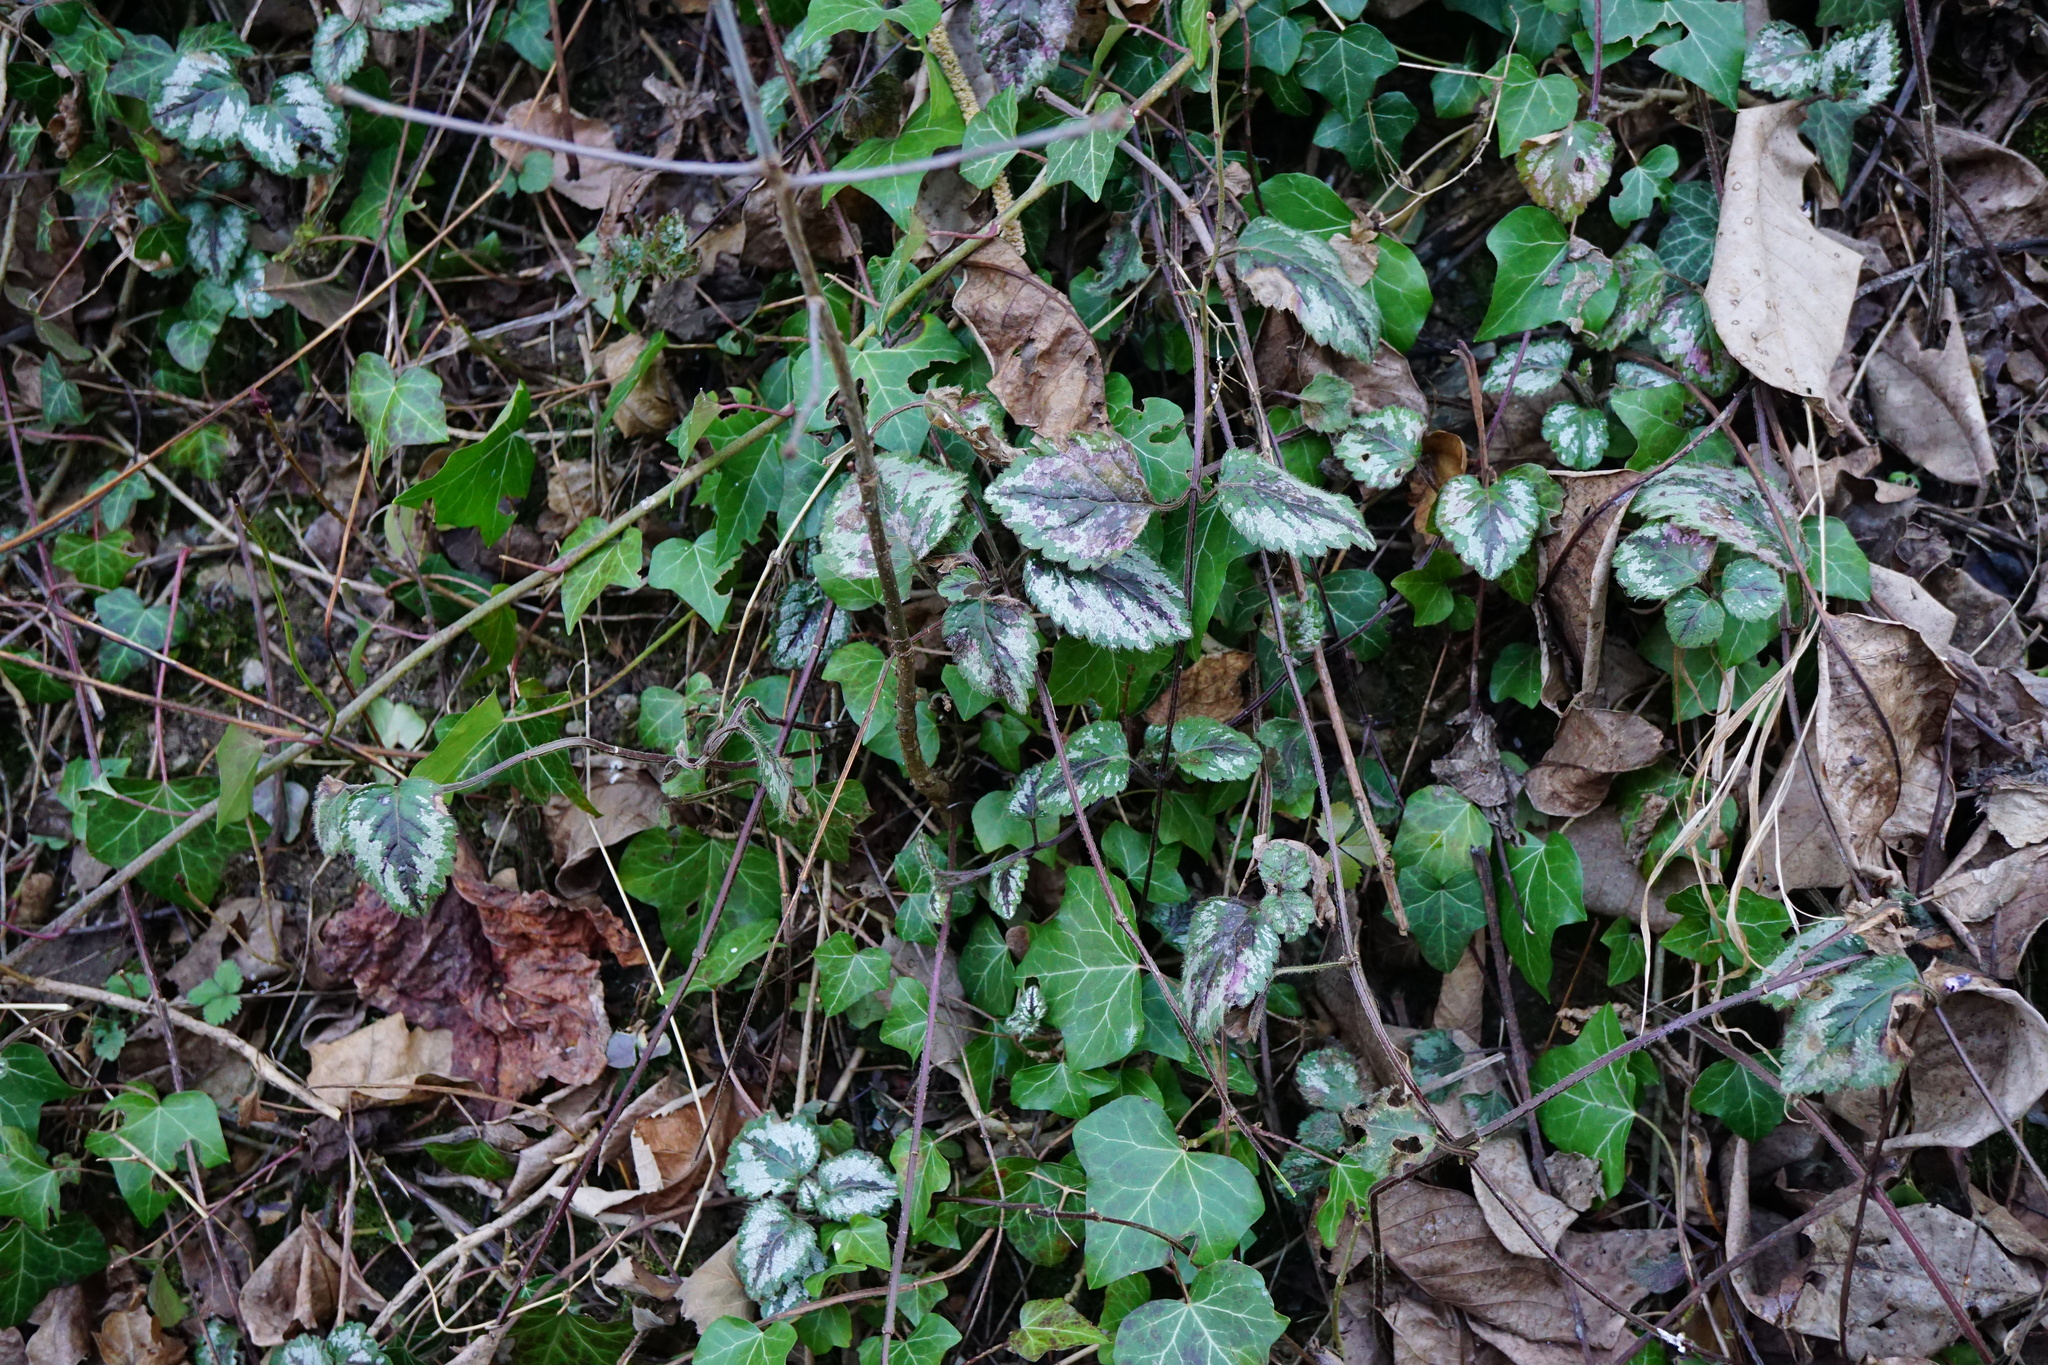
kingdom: Plantae
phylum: Tracheophyta
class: Magnoliopsida
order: Lamiales
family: Lamiaceae
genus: Lamium
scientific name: Lamium galeobdolon
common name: Yellow archangel
